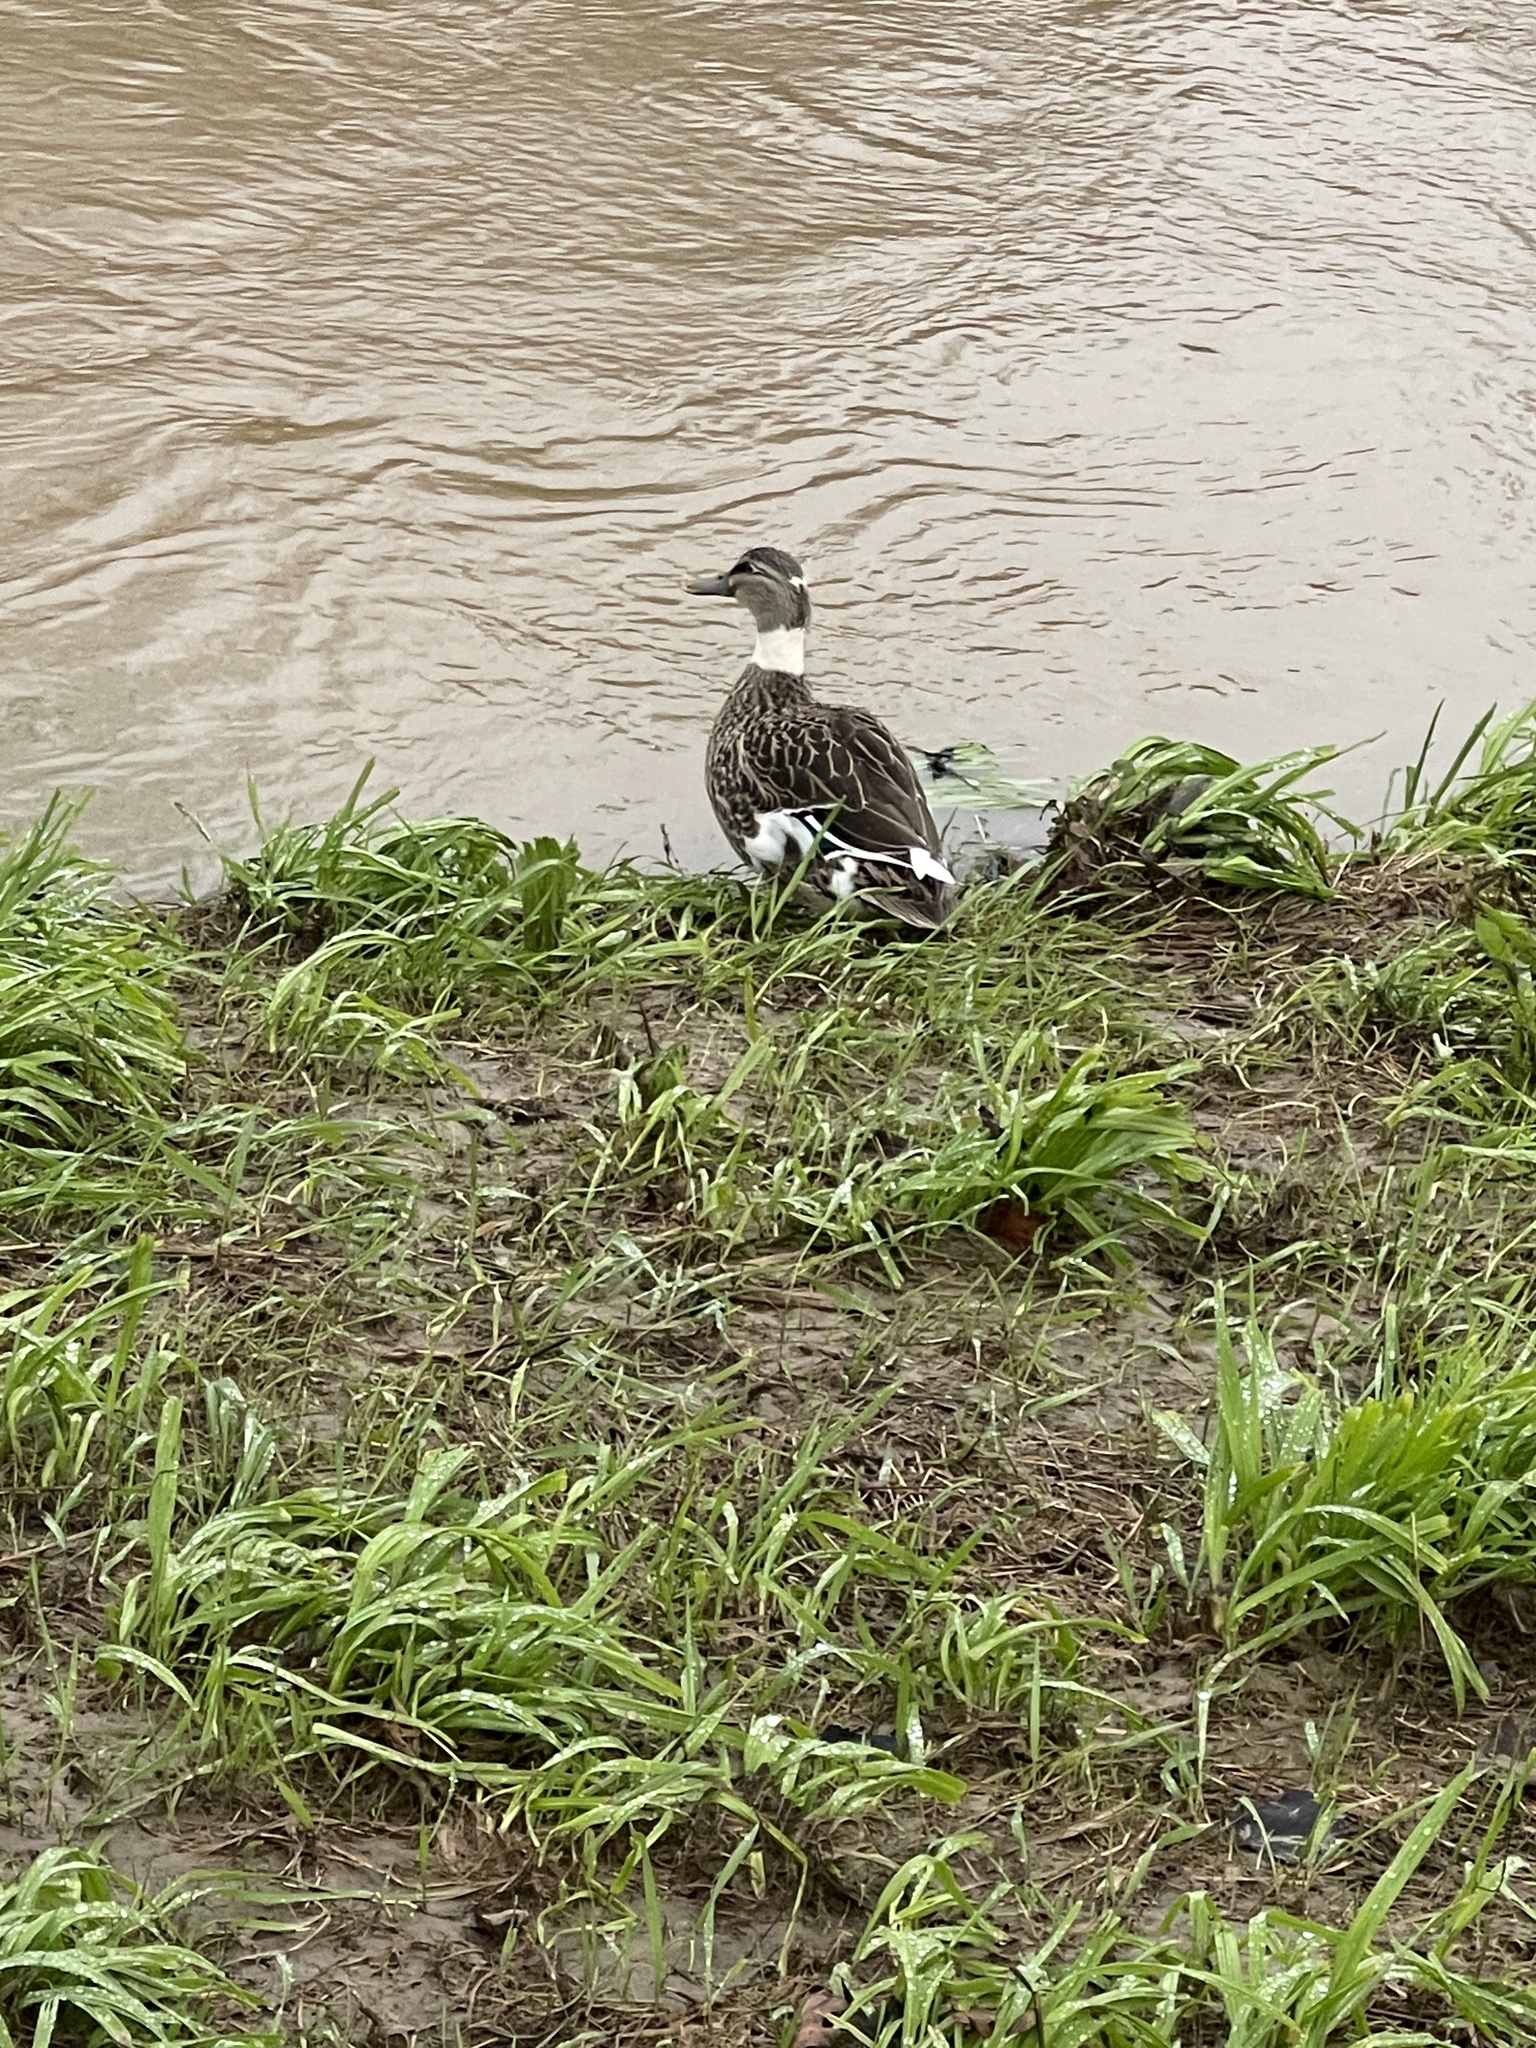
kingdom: Animalia
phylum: Chordata
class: Aves
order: Anseriformes
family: Anatidae
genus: Anas
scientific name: Anas platyrhynchos
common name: Mallard
